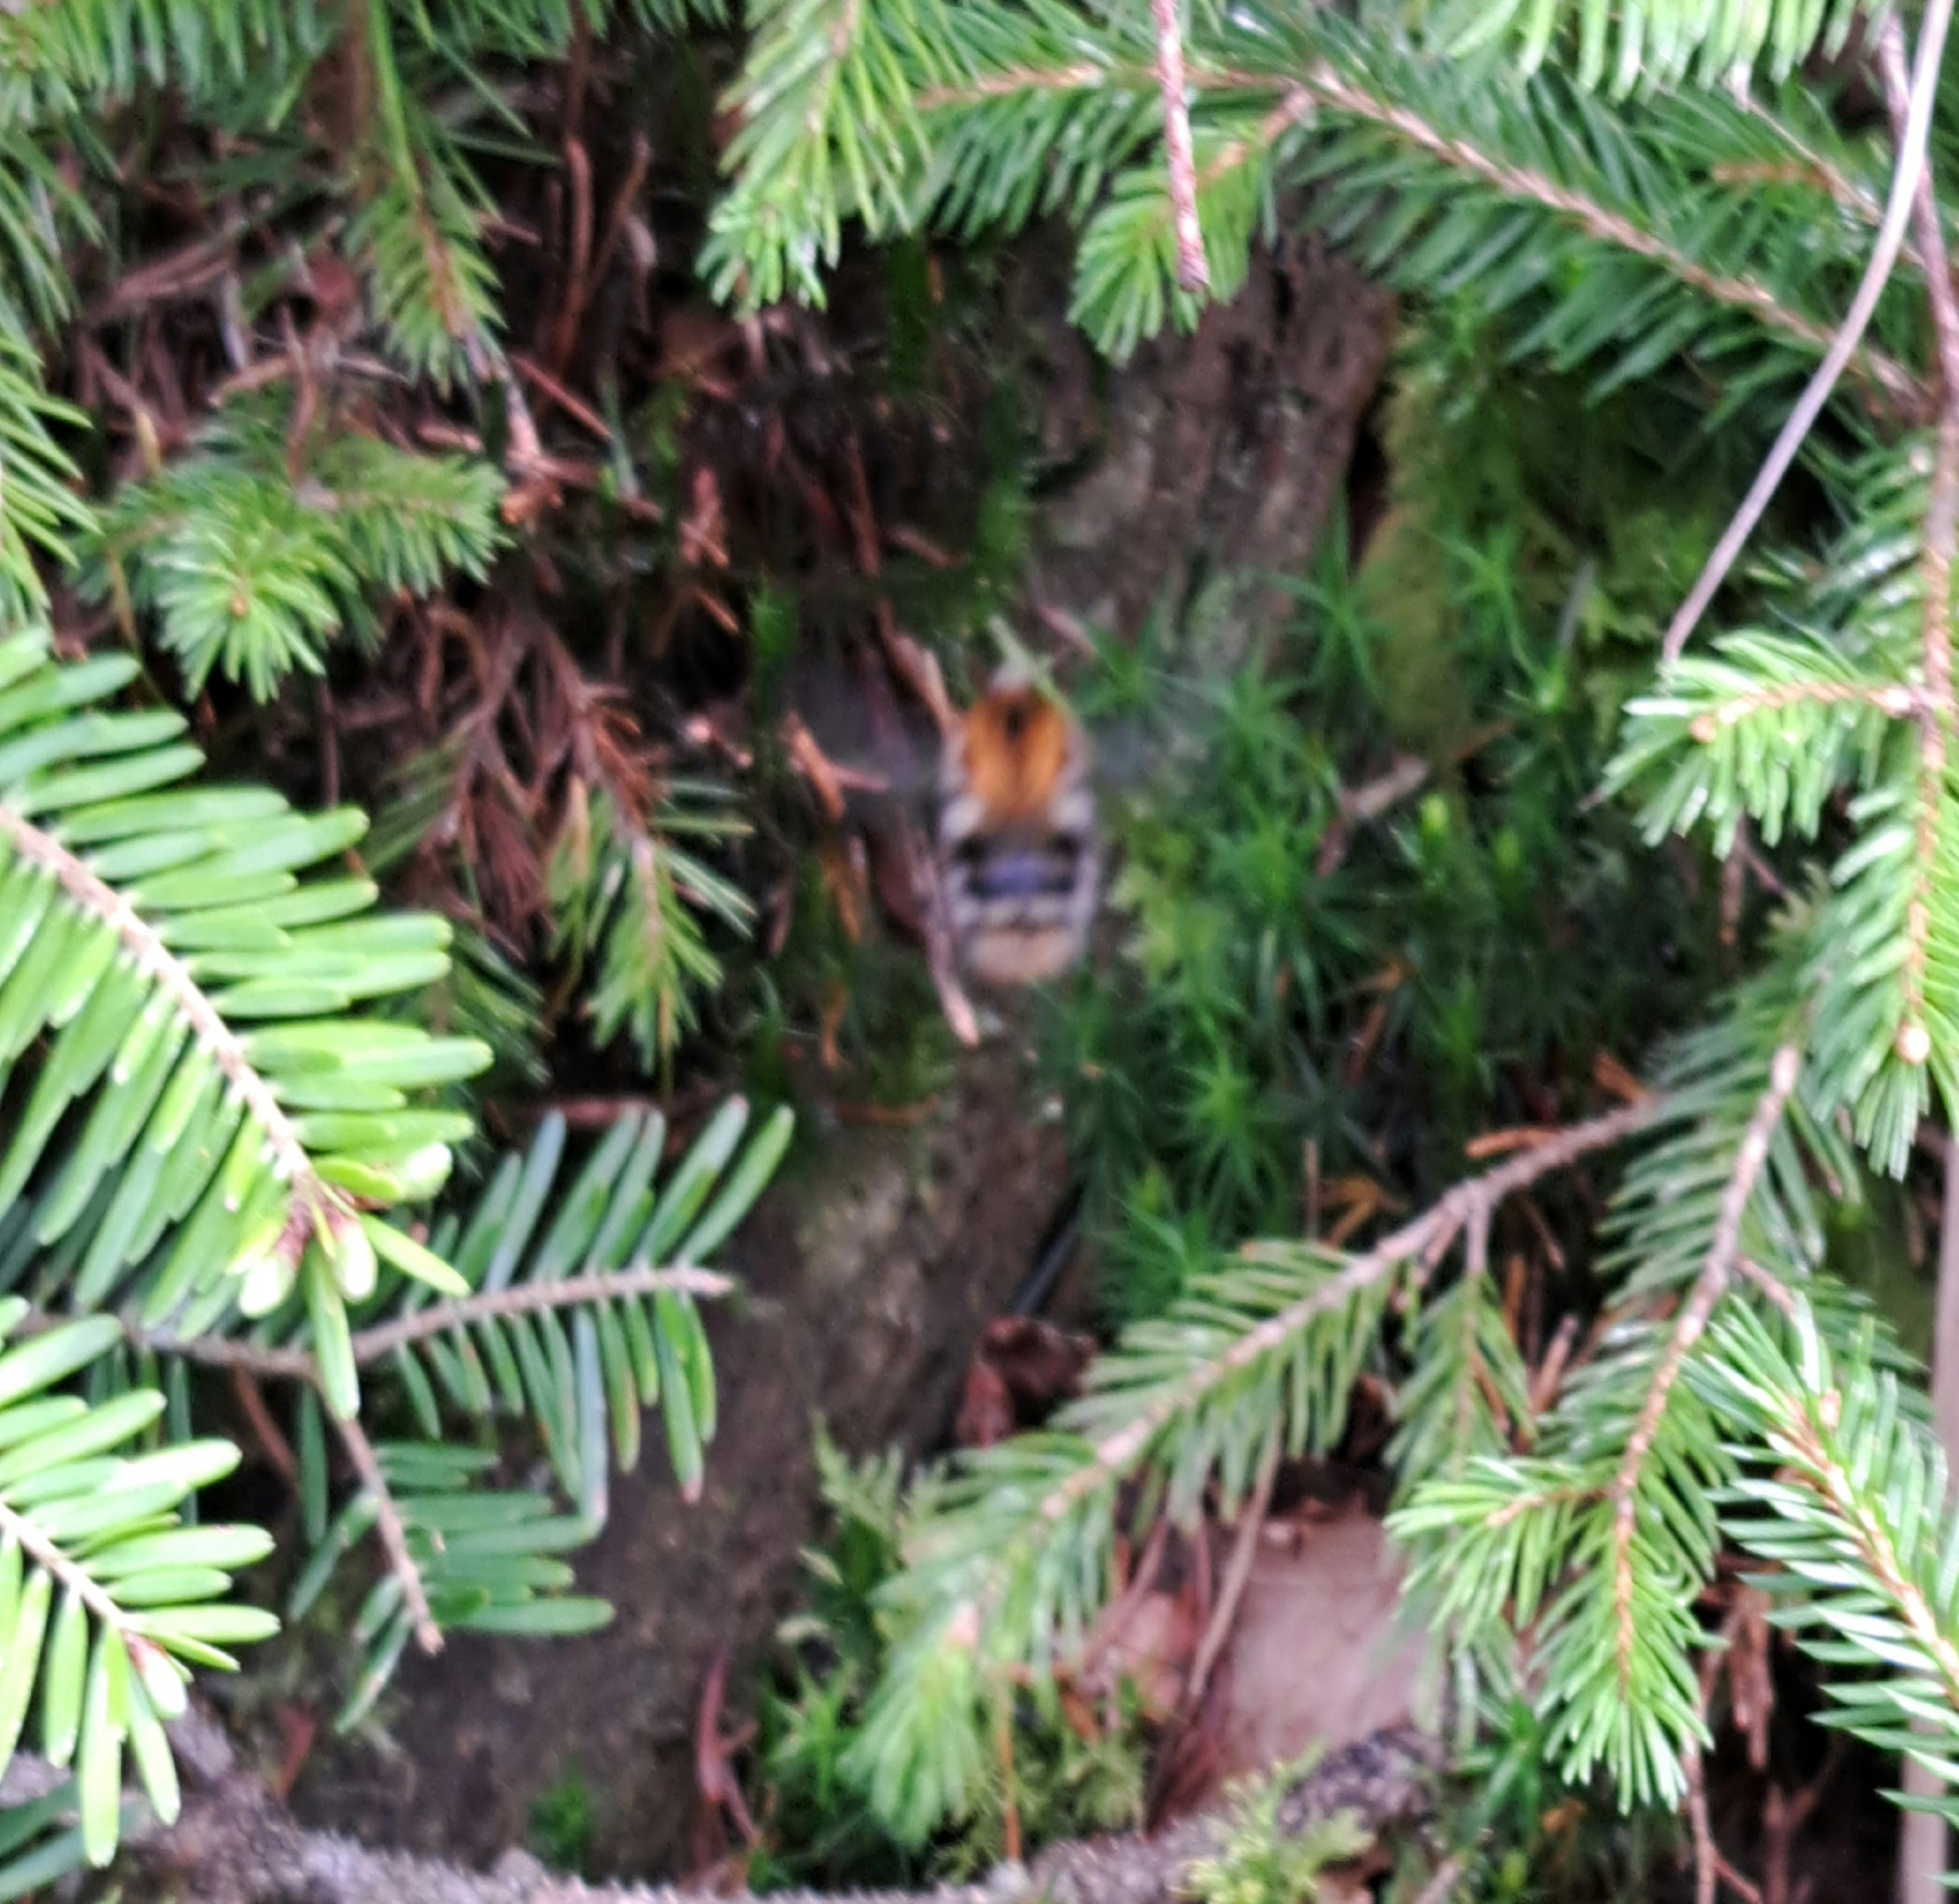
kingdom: Animalia
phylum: Arthropoda
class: Insecta
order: Hymenoptera
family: Apidae
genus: Bombus
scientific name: Bombus pascuorum
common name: Common carder bee
